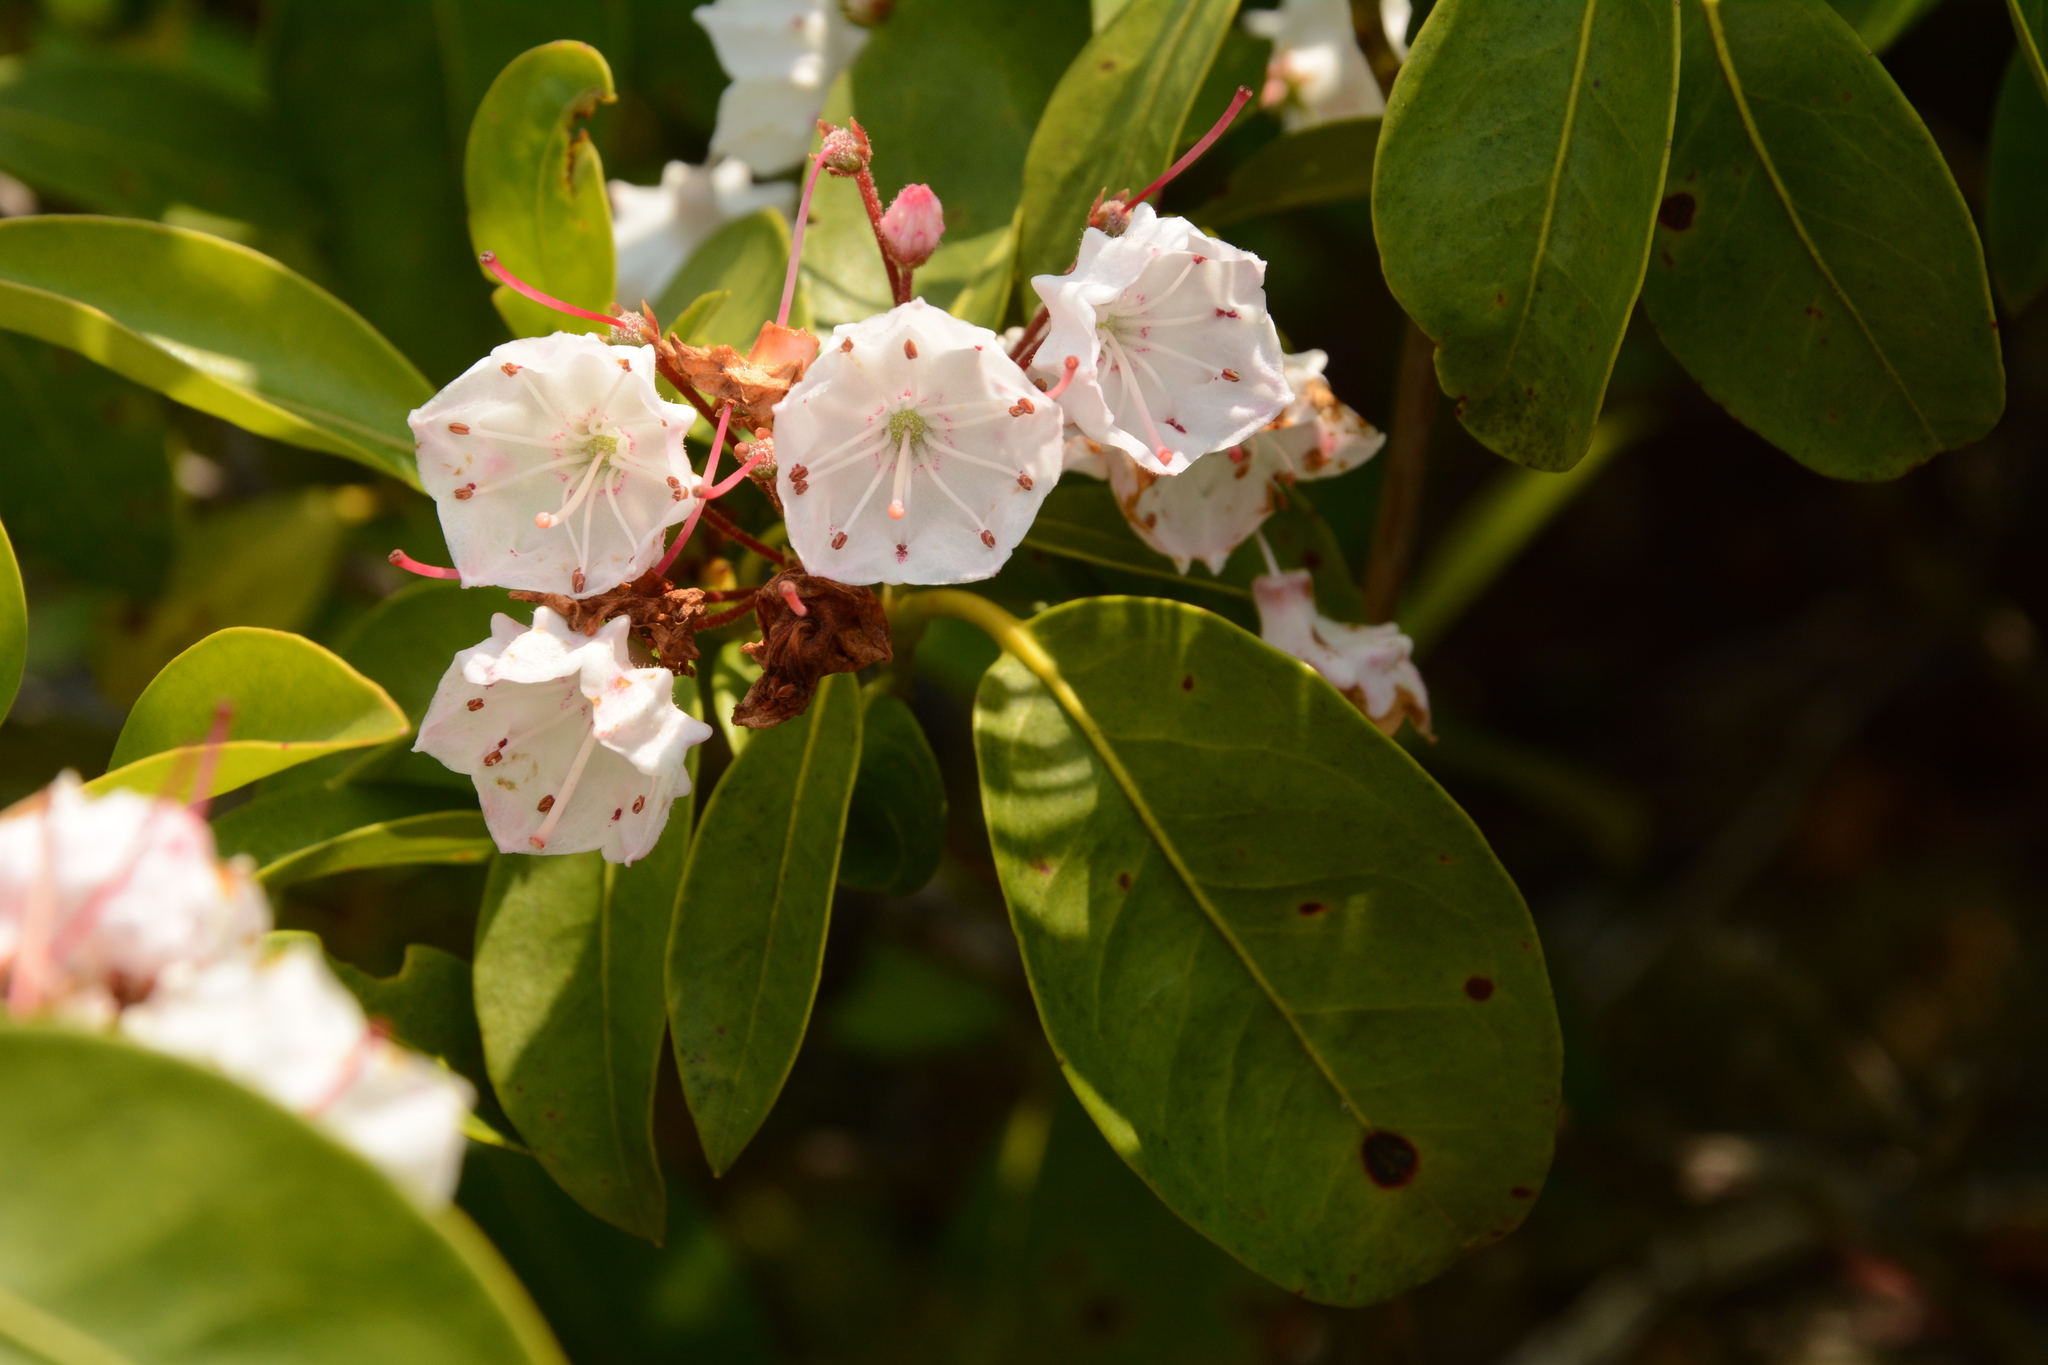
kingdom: Plantae
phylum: Tracheophyta
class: Magnoliopsida
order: Ericales
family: Ericaceae
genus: Kalmia
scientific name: Kalmia latifolia
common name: Mountain-laurel
